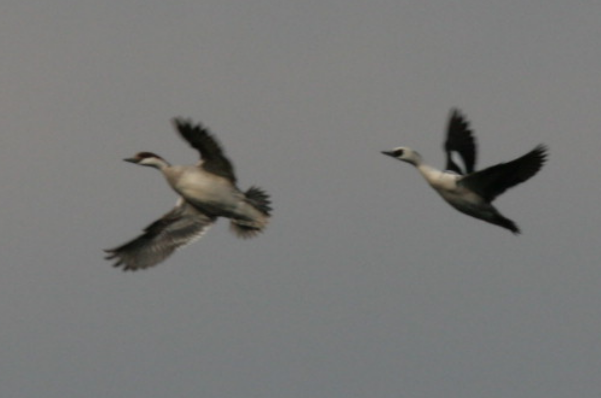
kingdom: Animalia
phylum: Chordata
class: Aves
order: Anseriformes
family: Anatidae
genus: Mergellus
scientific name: Mergellus albellus
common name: Smew
